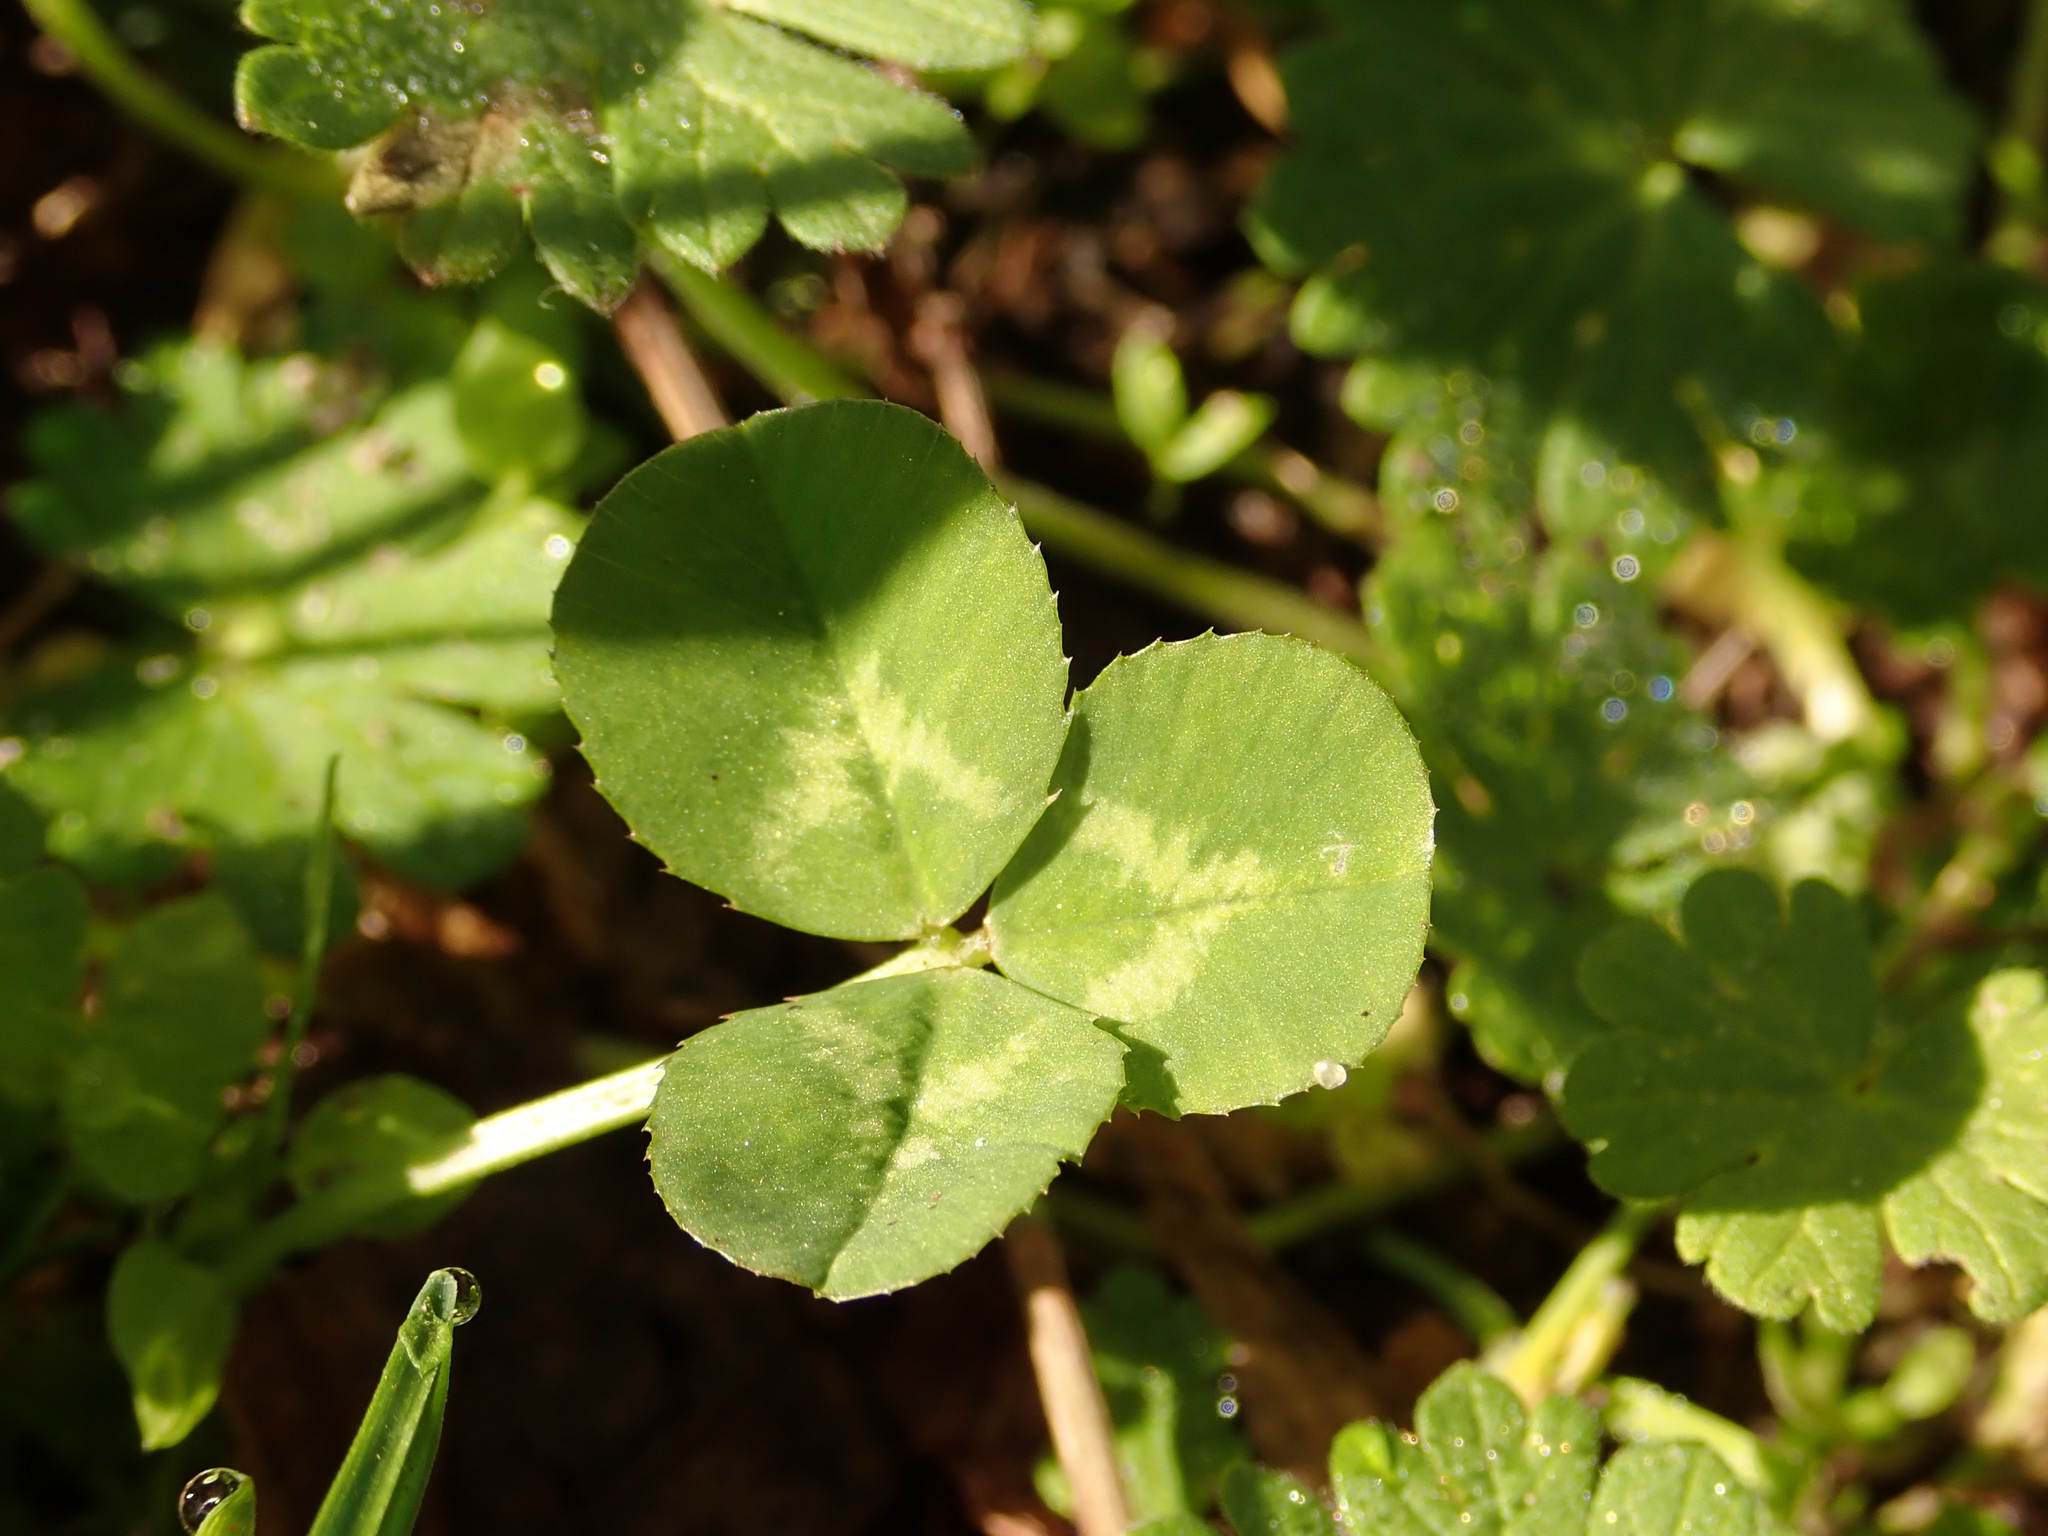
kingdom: Plantae
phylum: Tracheophyta
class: Magnoliopsida
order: Fabales
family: Fabaceae
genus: Trifolium
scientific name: Trifolium repens
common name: White clover
